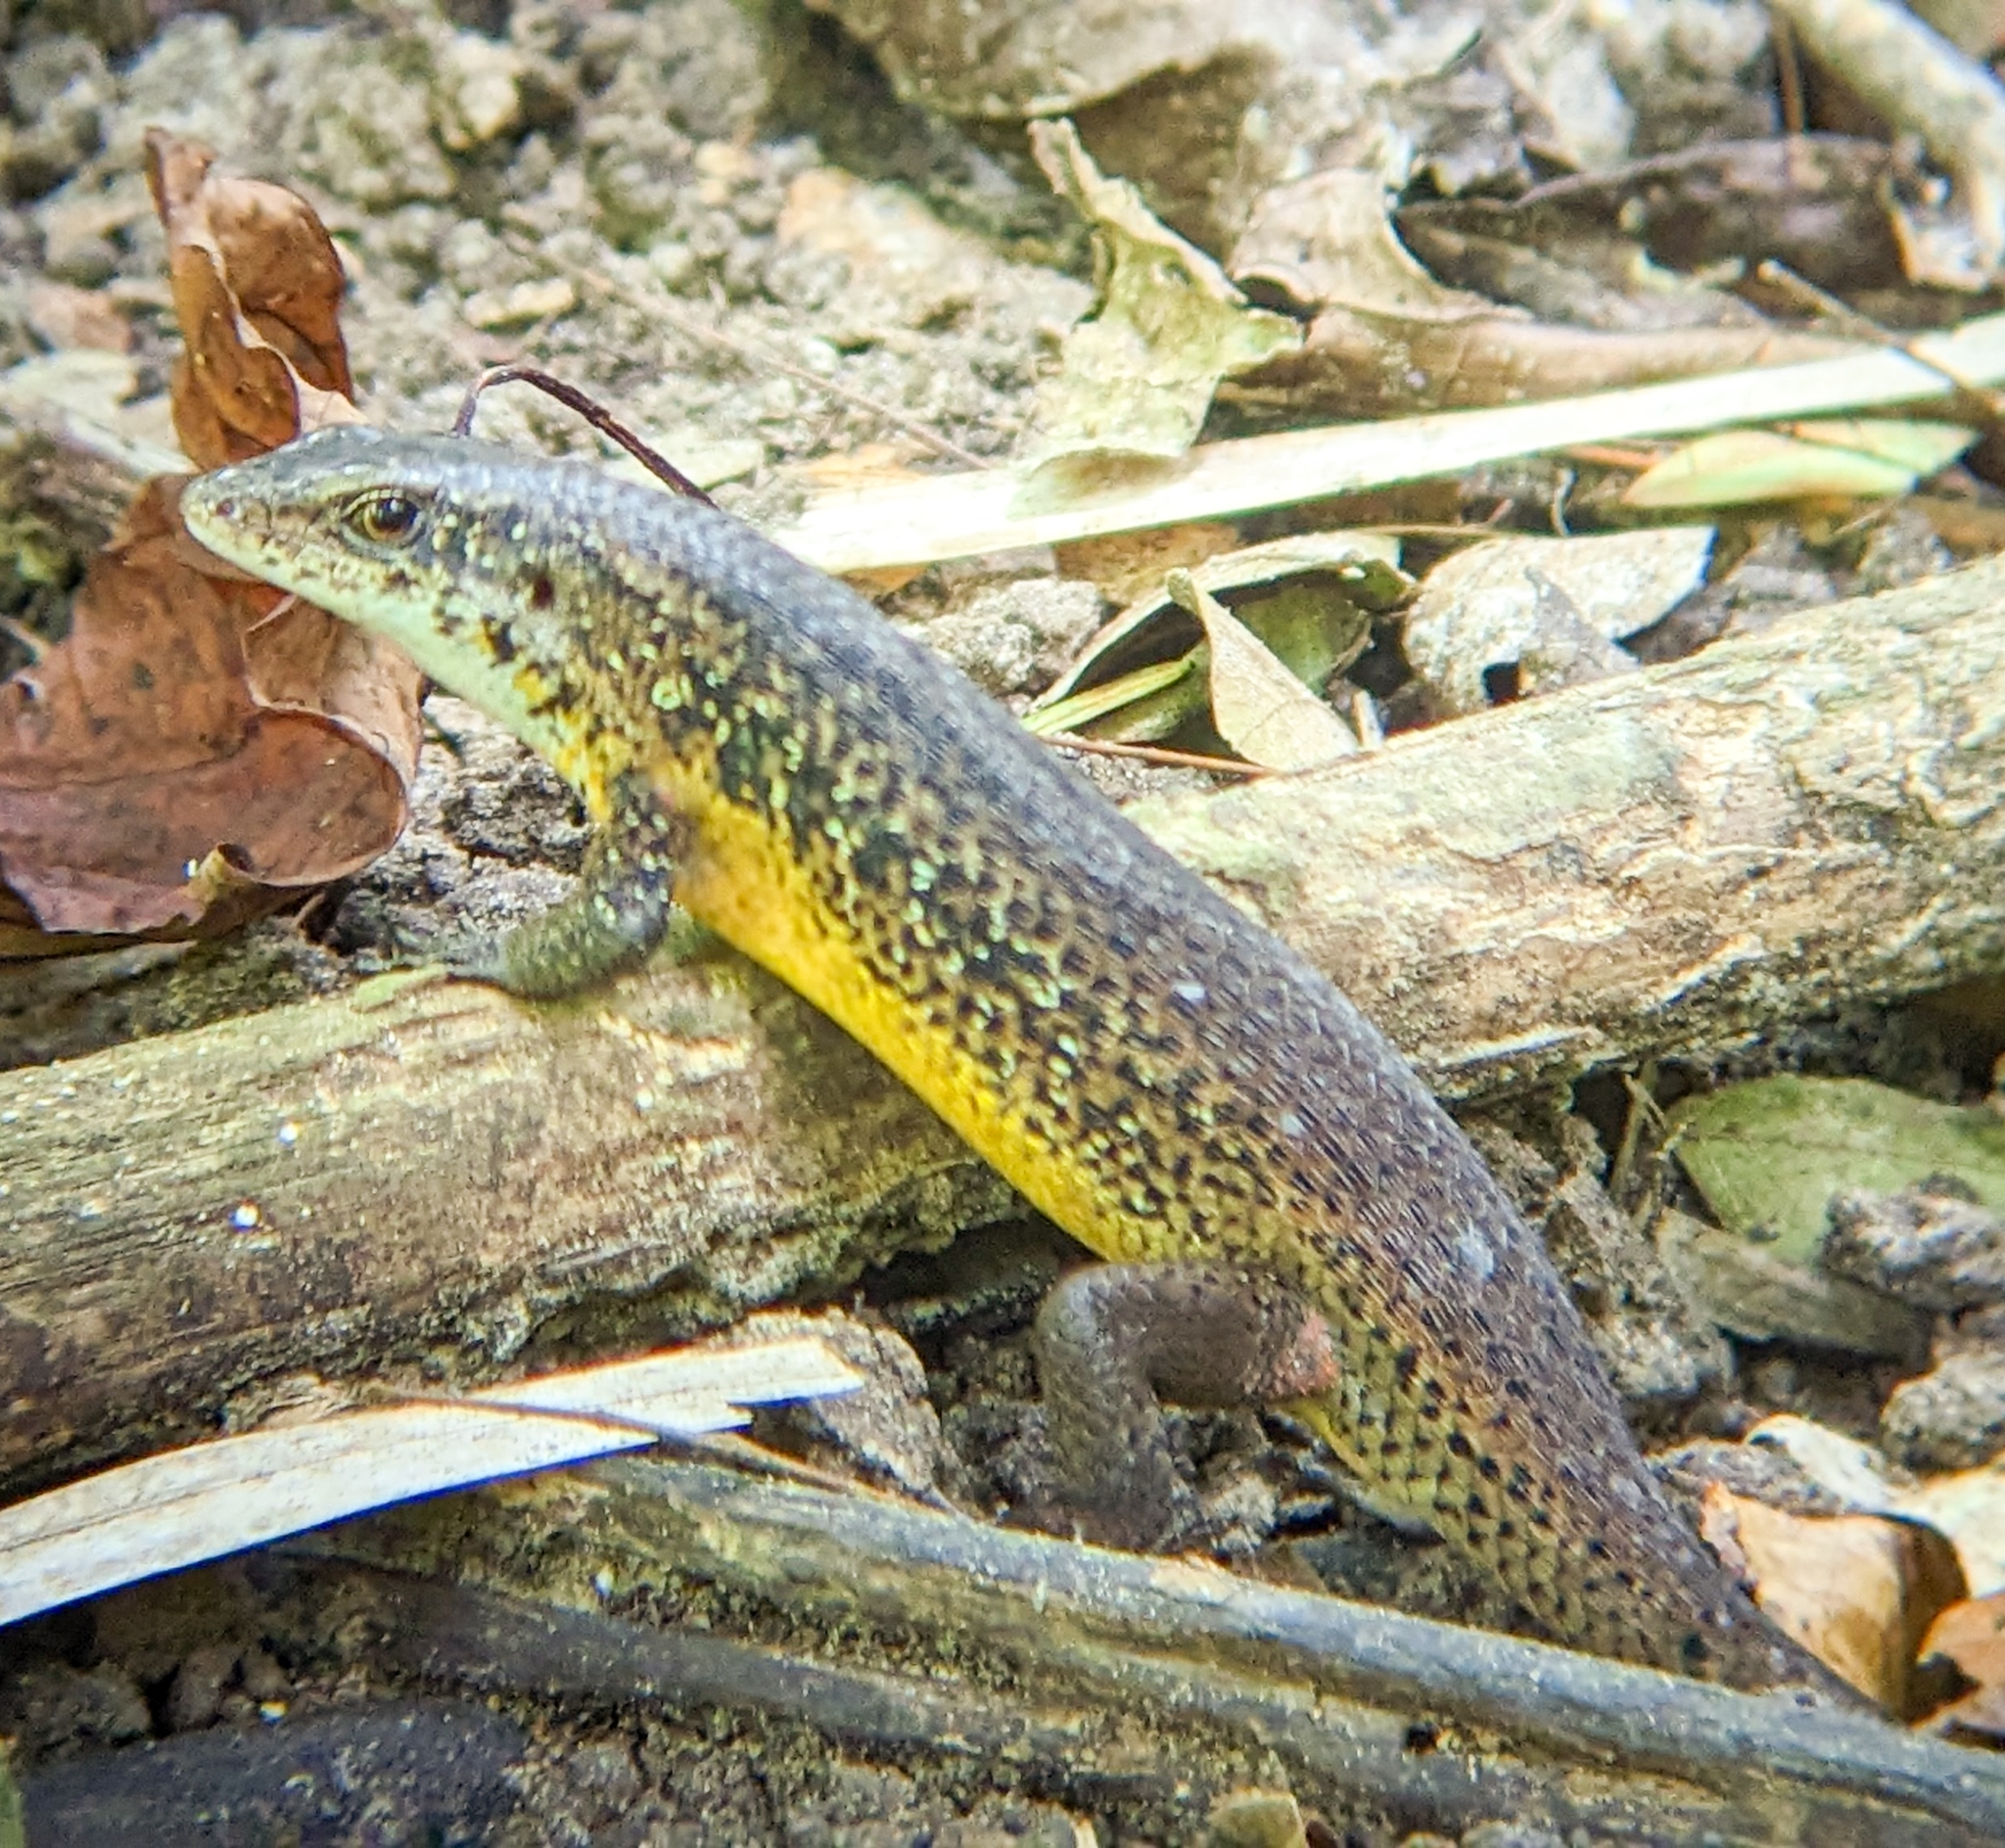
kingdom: Animalia
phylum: Chordata
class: Squamata
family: Scincidae
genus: Eutropis
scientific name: Eutropis andamanensis
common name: Andaman islands grassskink
